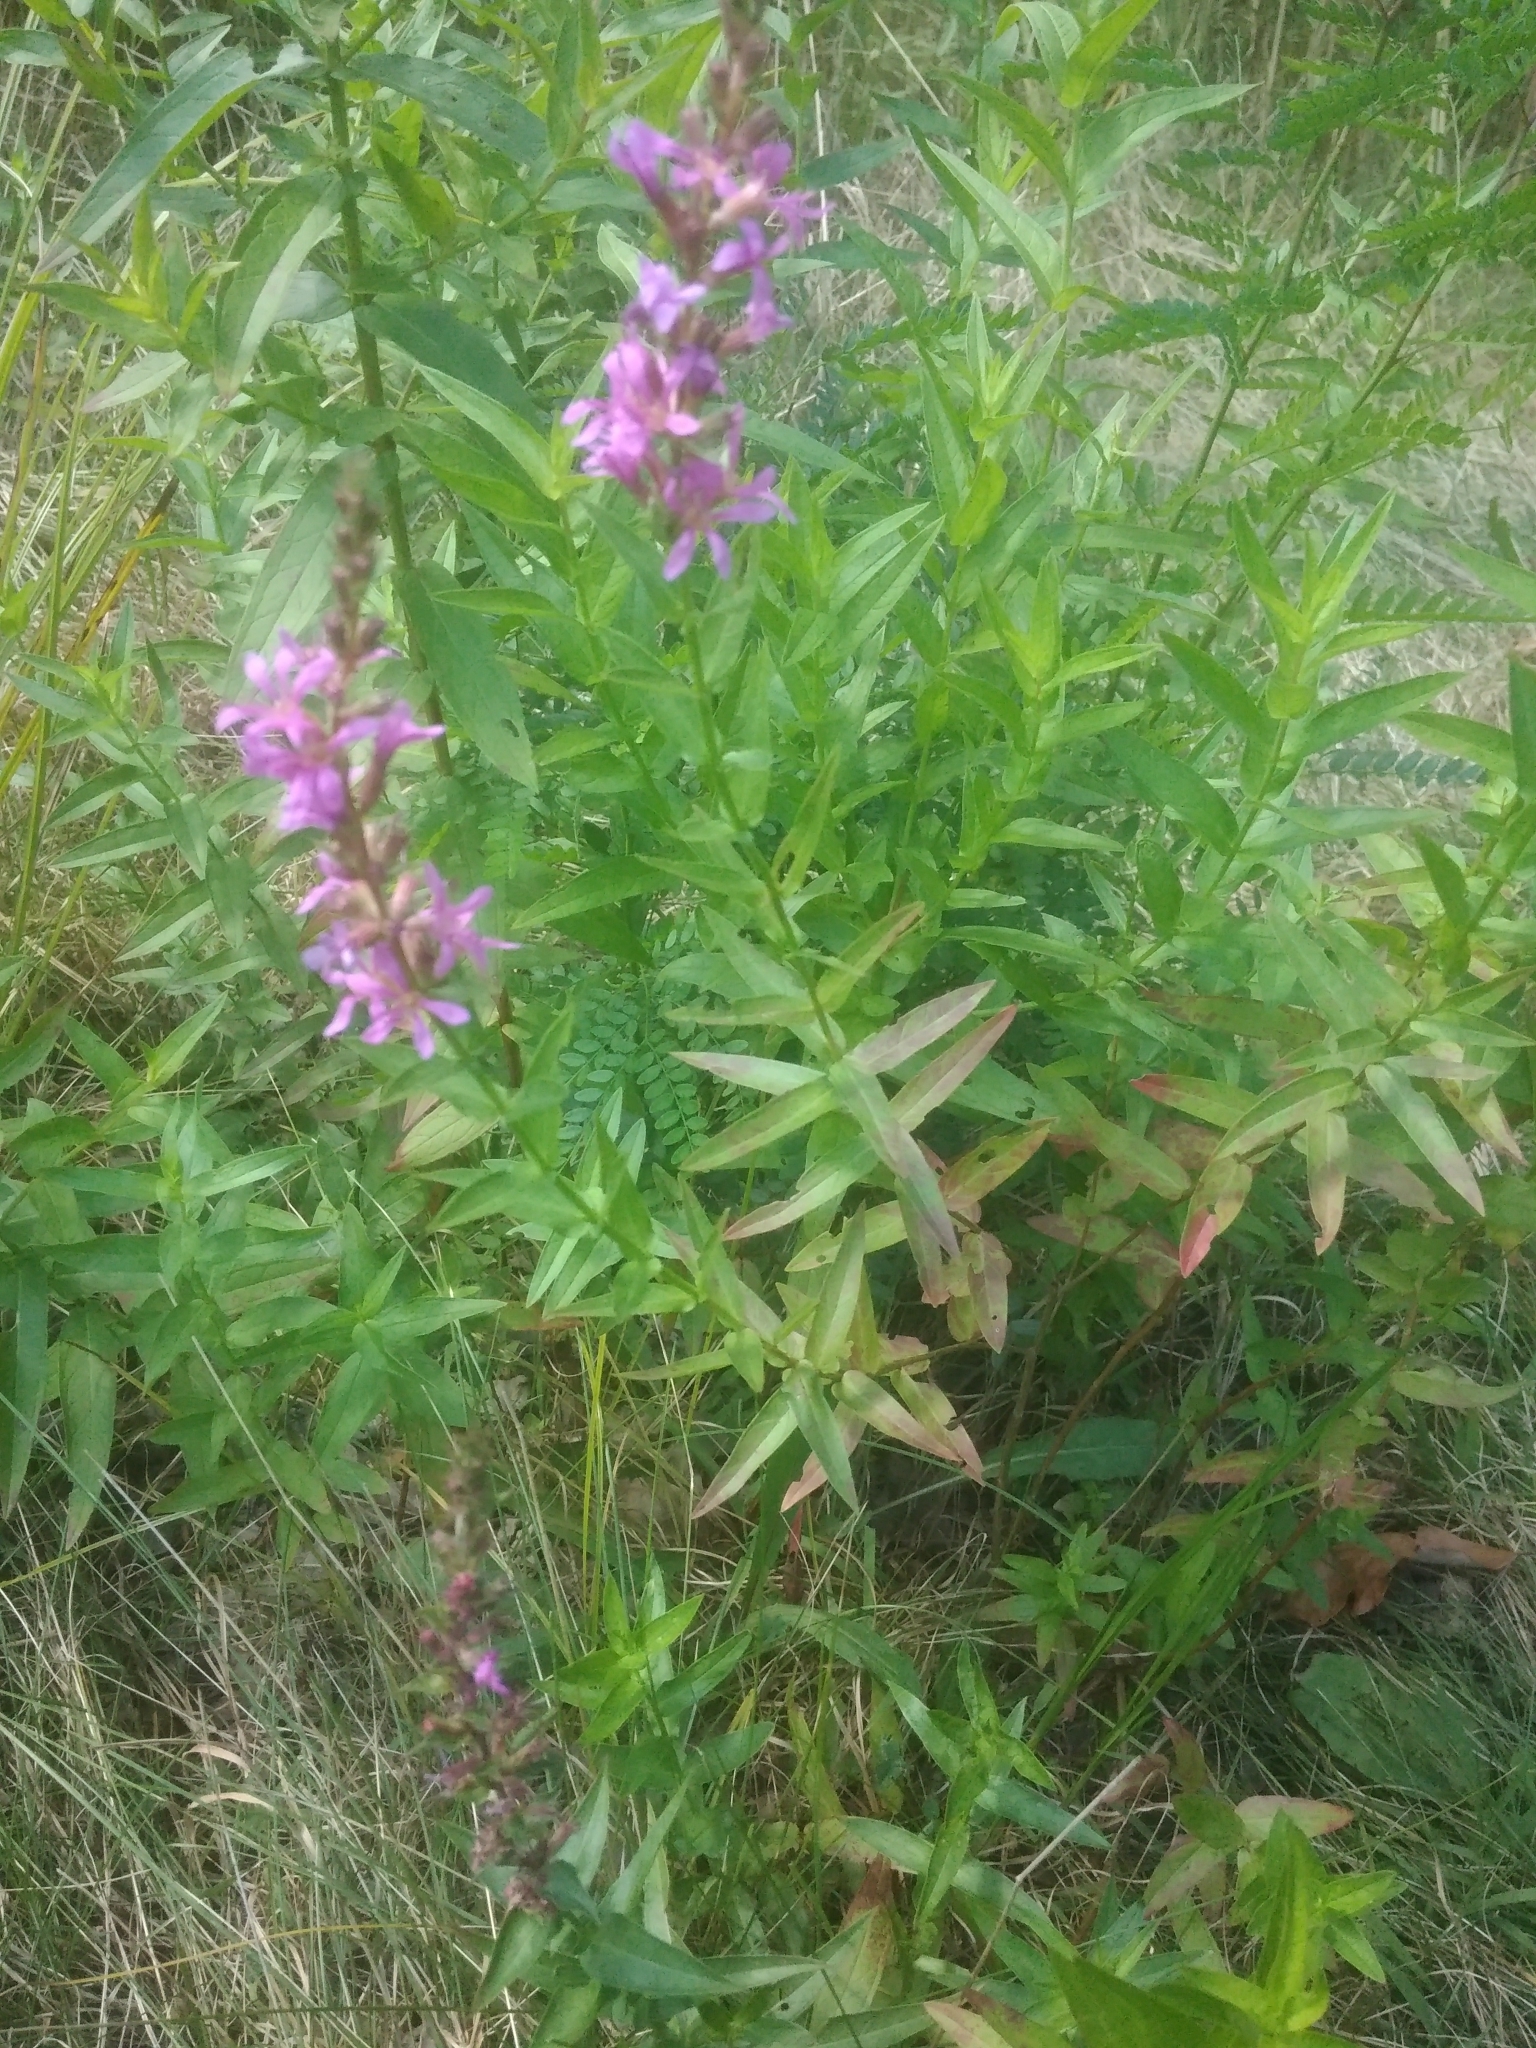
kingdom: Plantae
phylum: Tracheophyta
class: Magnoliopsida
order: Myrtales
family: Lythraceae
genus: Lythrum
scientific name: Lythrum salicaria
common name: Purple loosestrife
